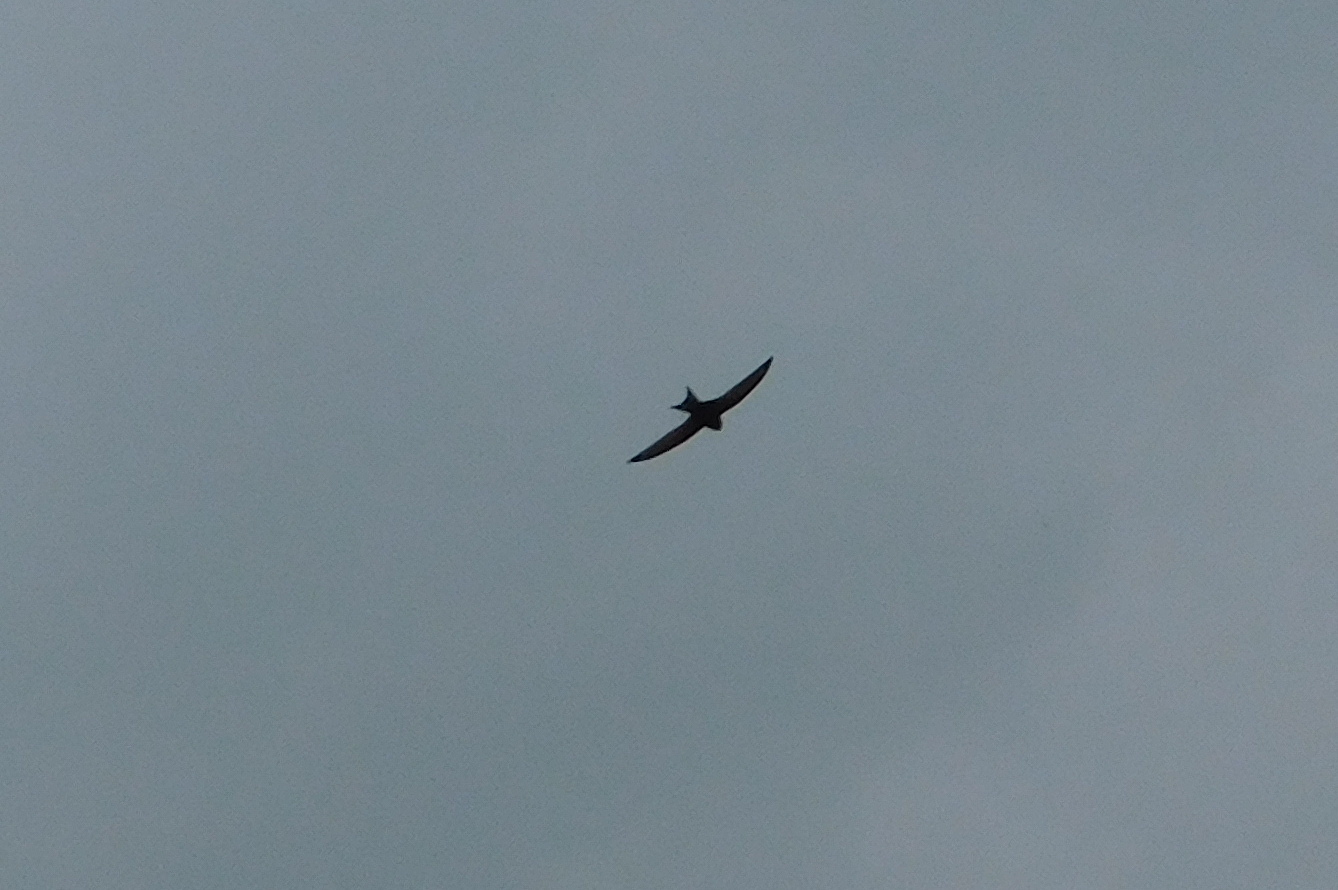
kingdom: Animalia
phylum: Chordata
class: Aves
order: Passeriformes
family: Hirundinidae
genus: Delichon
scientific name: Delichon urbicum
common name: Common house martin
